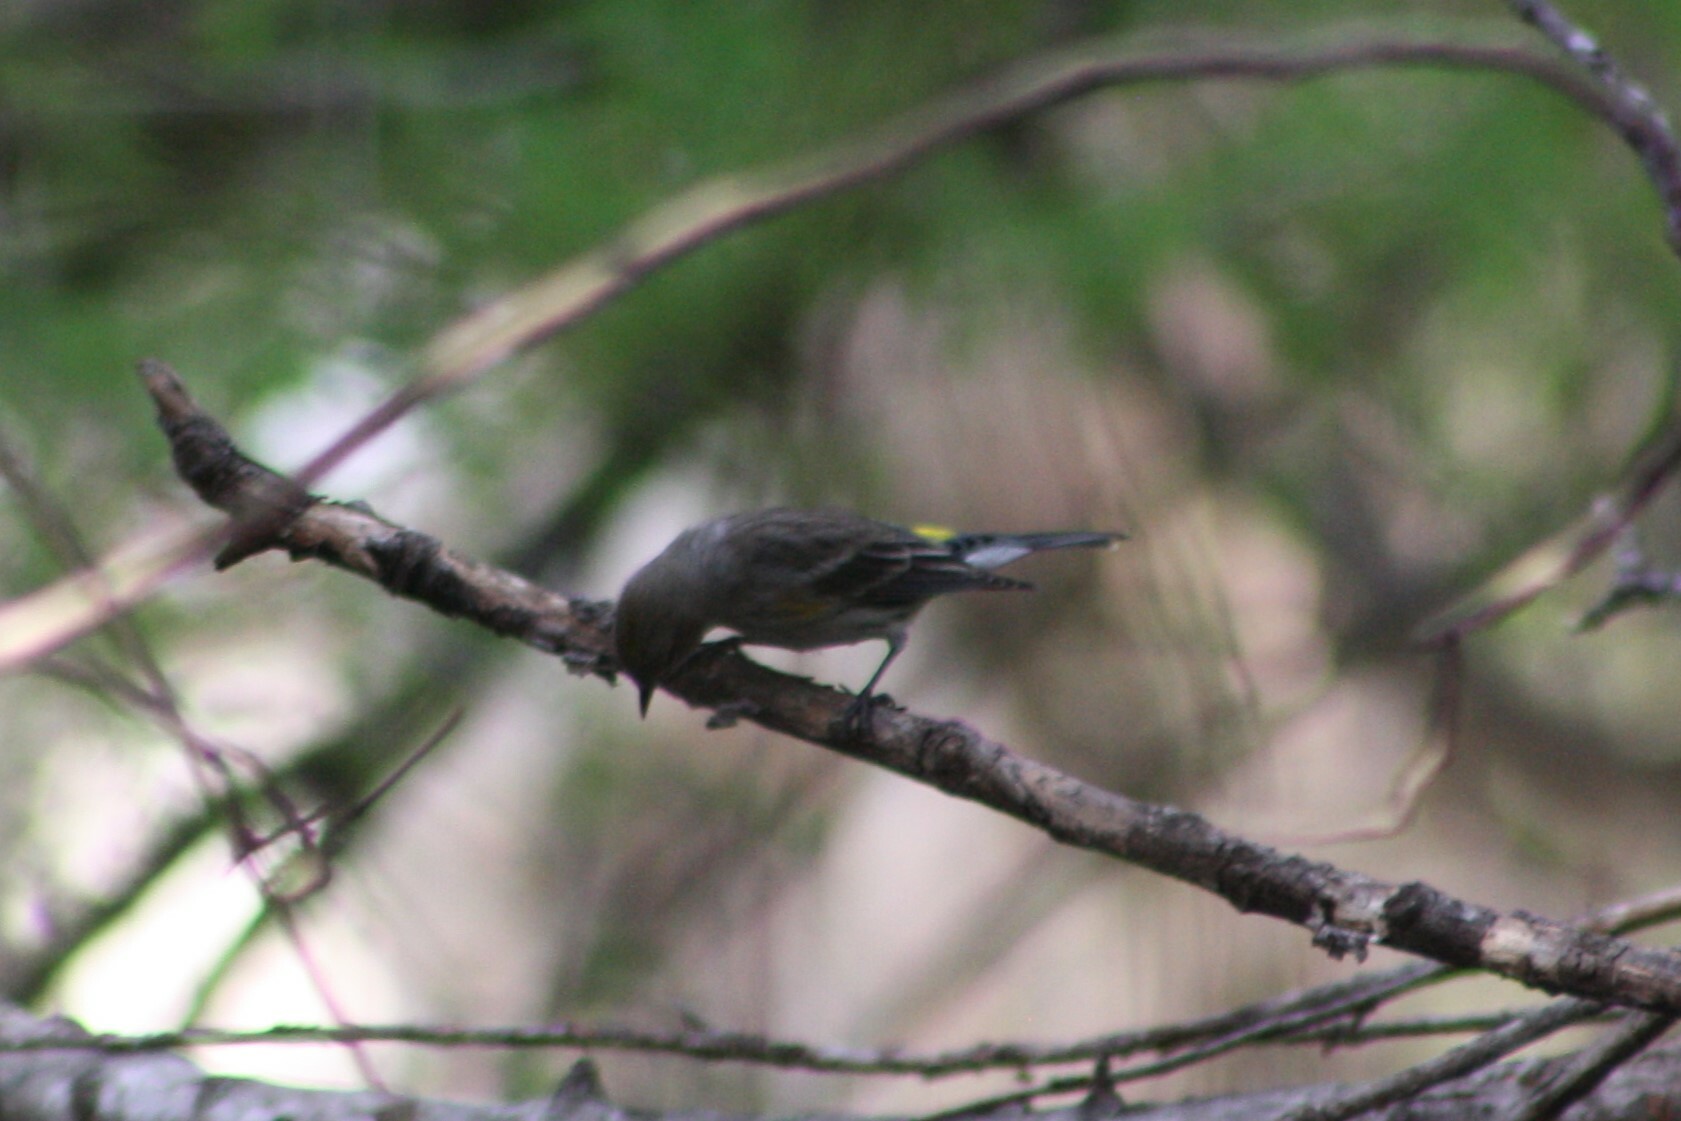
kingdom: Animalia
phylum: Chordata
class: Aves
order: Passeriformes
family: Parulidae
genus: Setophaga
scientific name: Setophaga coronata
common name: Myrtle warbler
